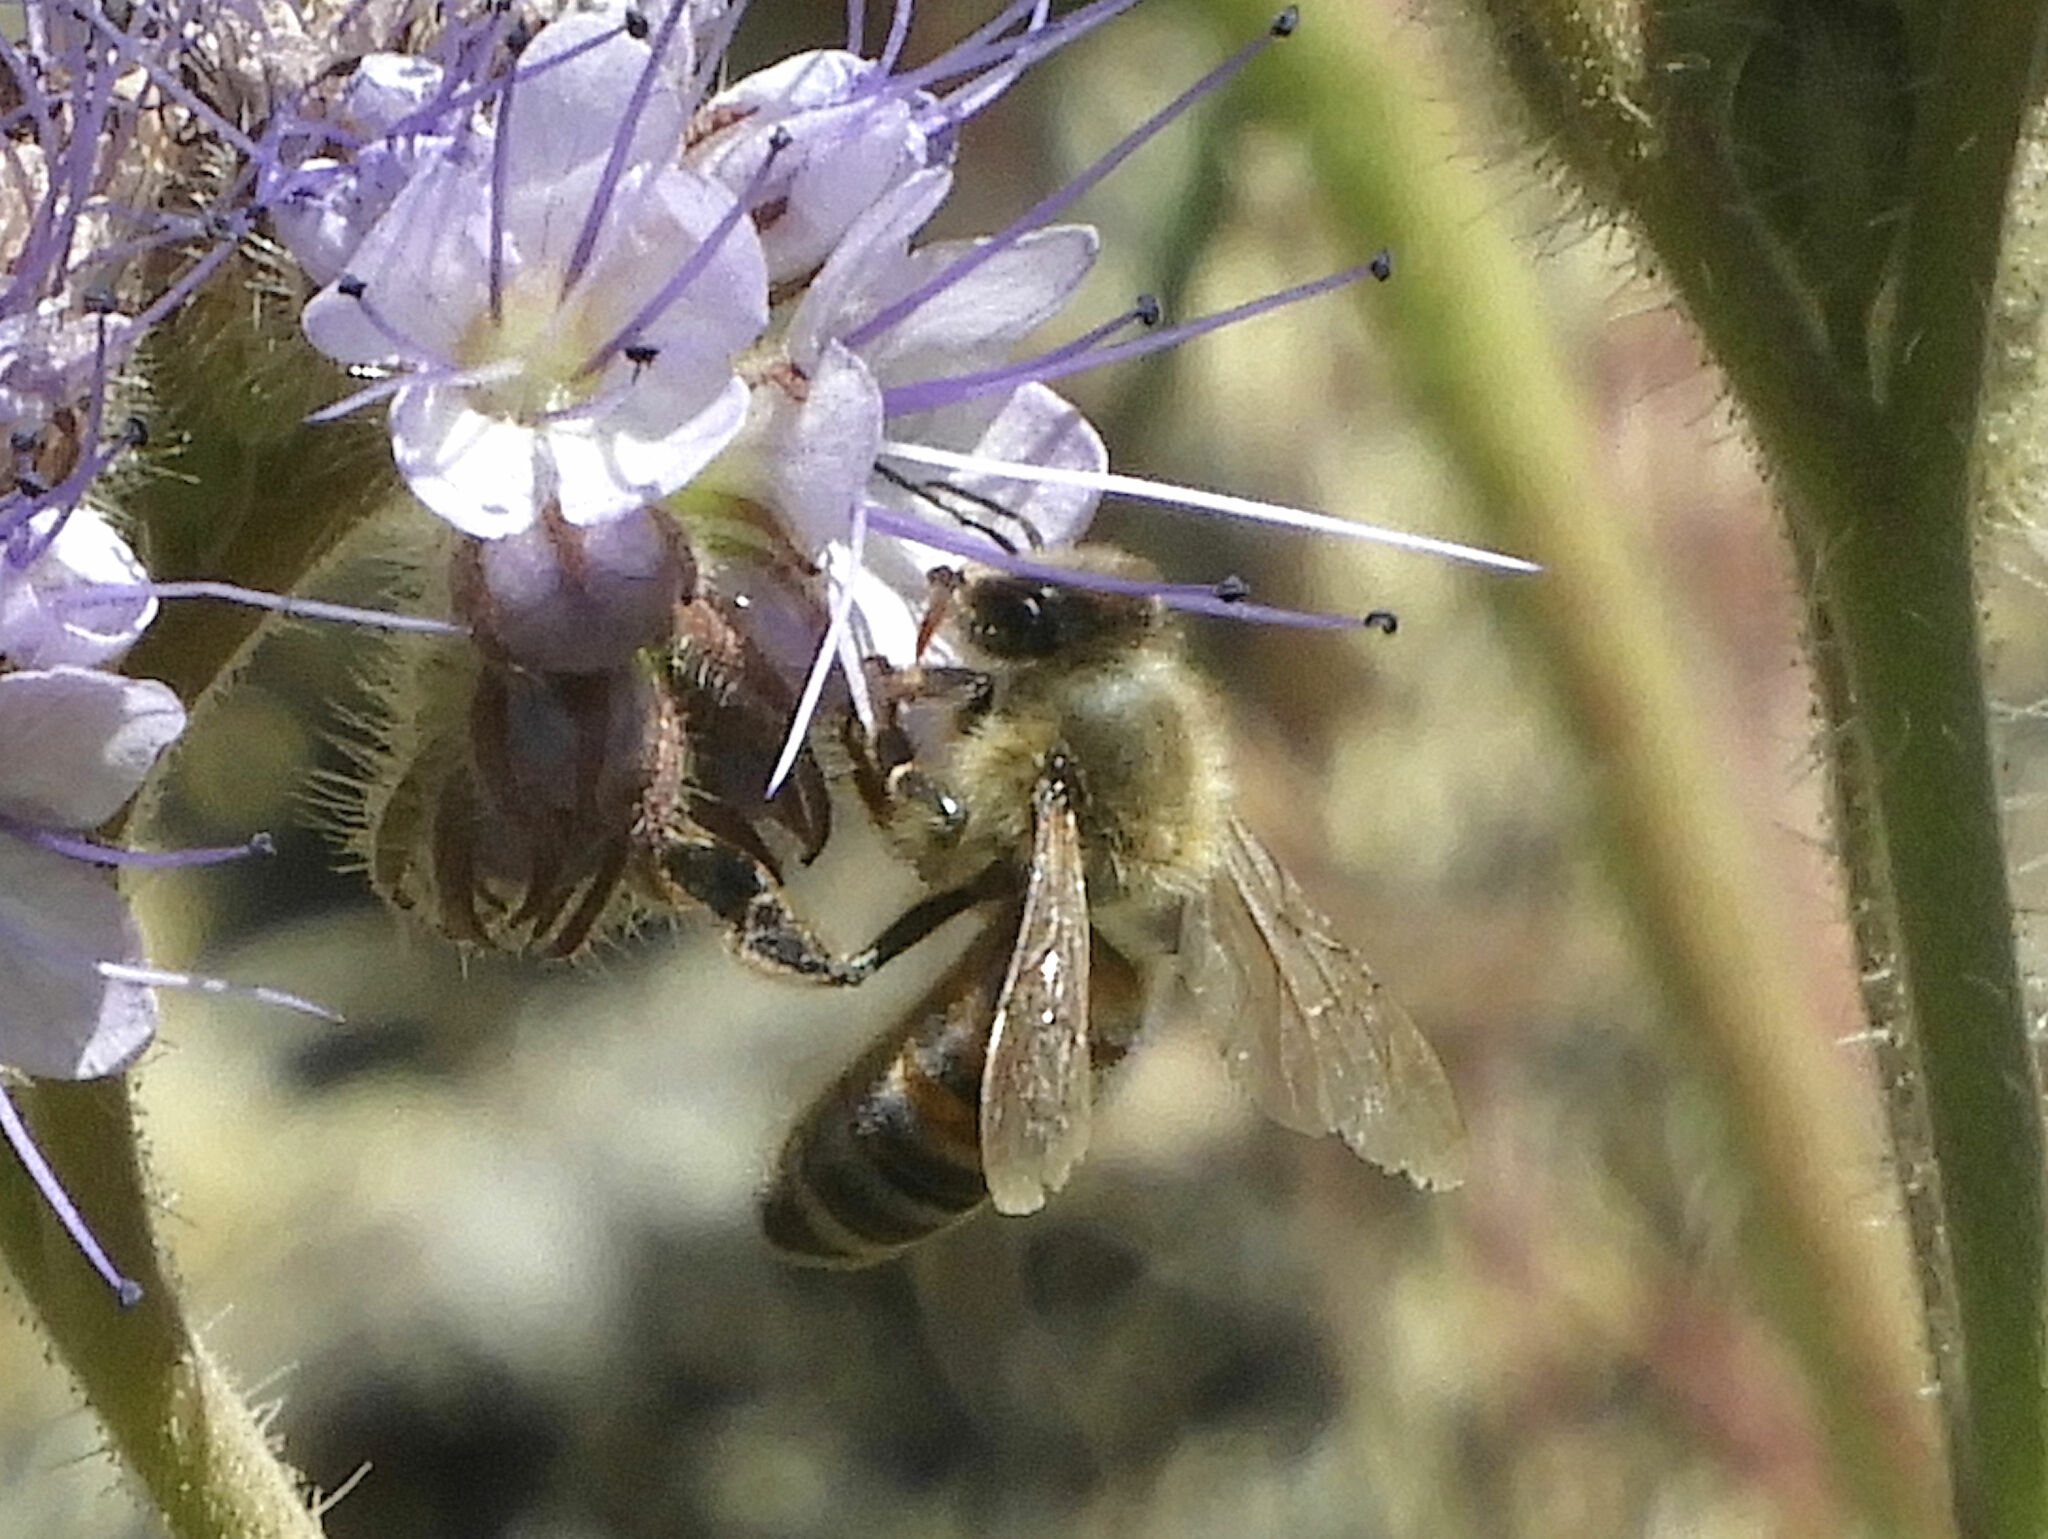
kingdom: Animalia
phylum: Arthropoda
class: Insecta
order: Hymenoptera
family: Apidae
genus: Apis
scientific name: Apis mellifera
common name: Honey bee
